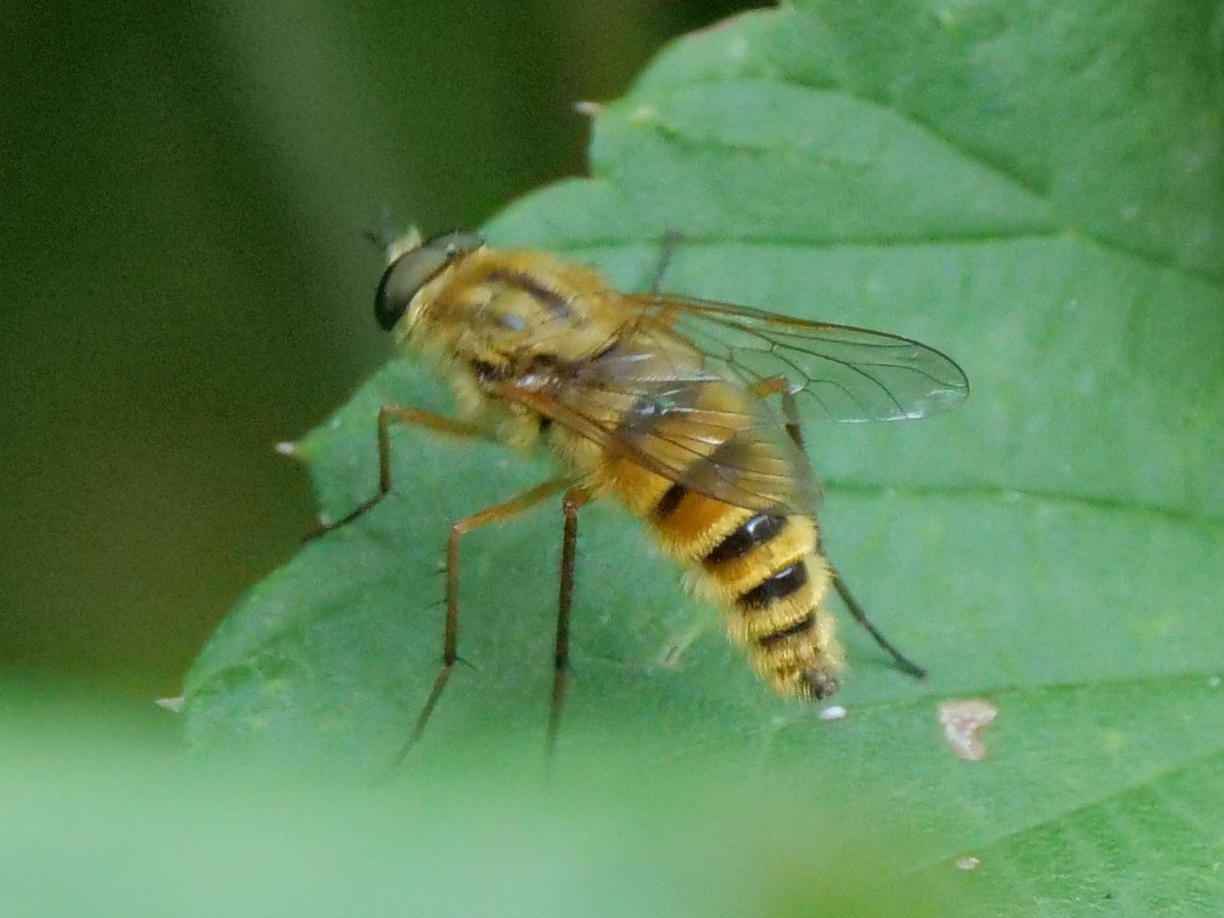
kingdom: Animalia
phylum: Arthropoda
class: Insecta
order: Diptera
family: Therevidae
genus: Thereva
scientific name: Thereva aurata
